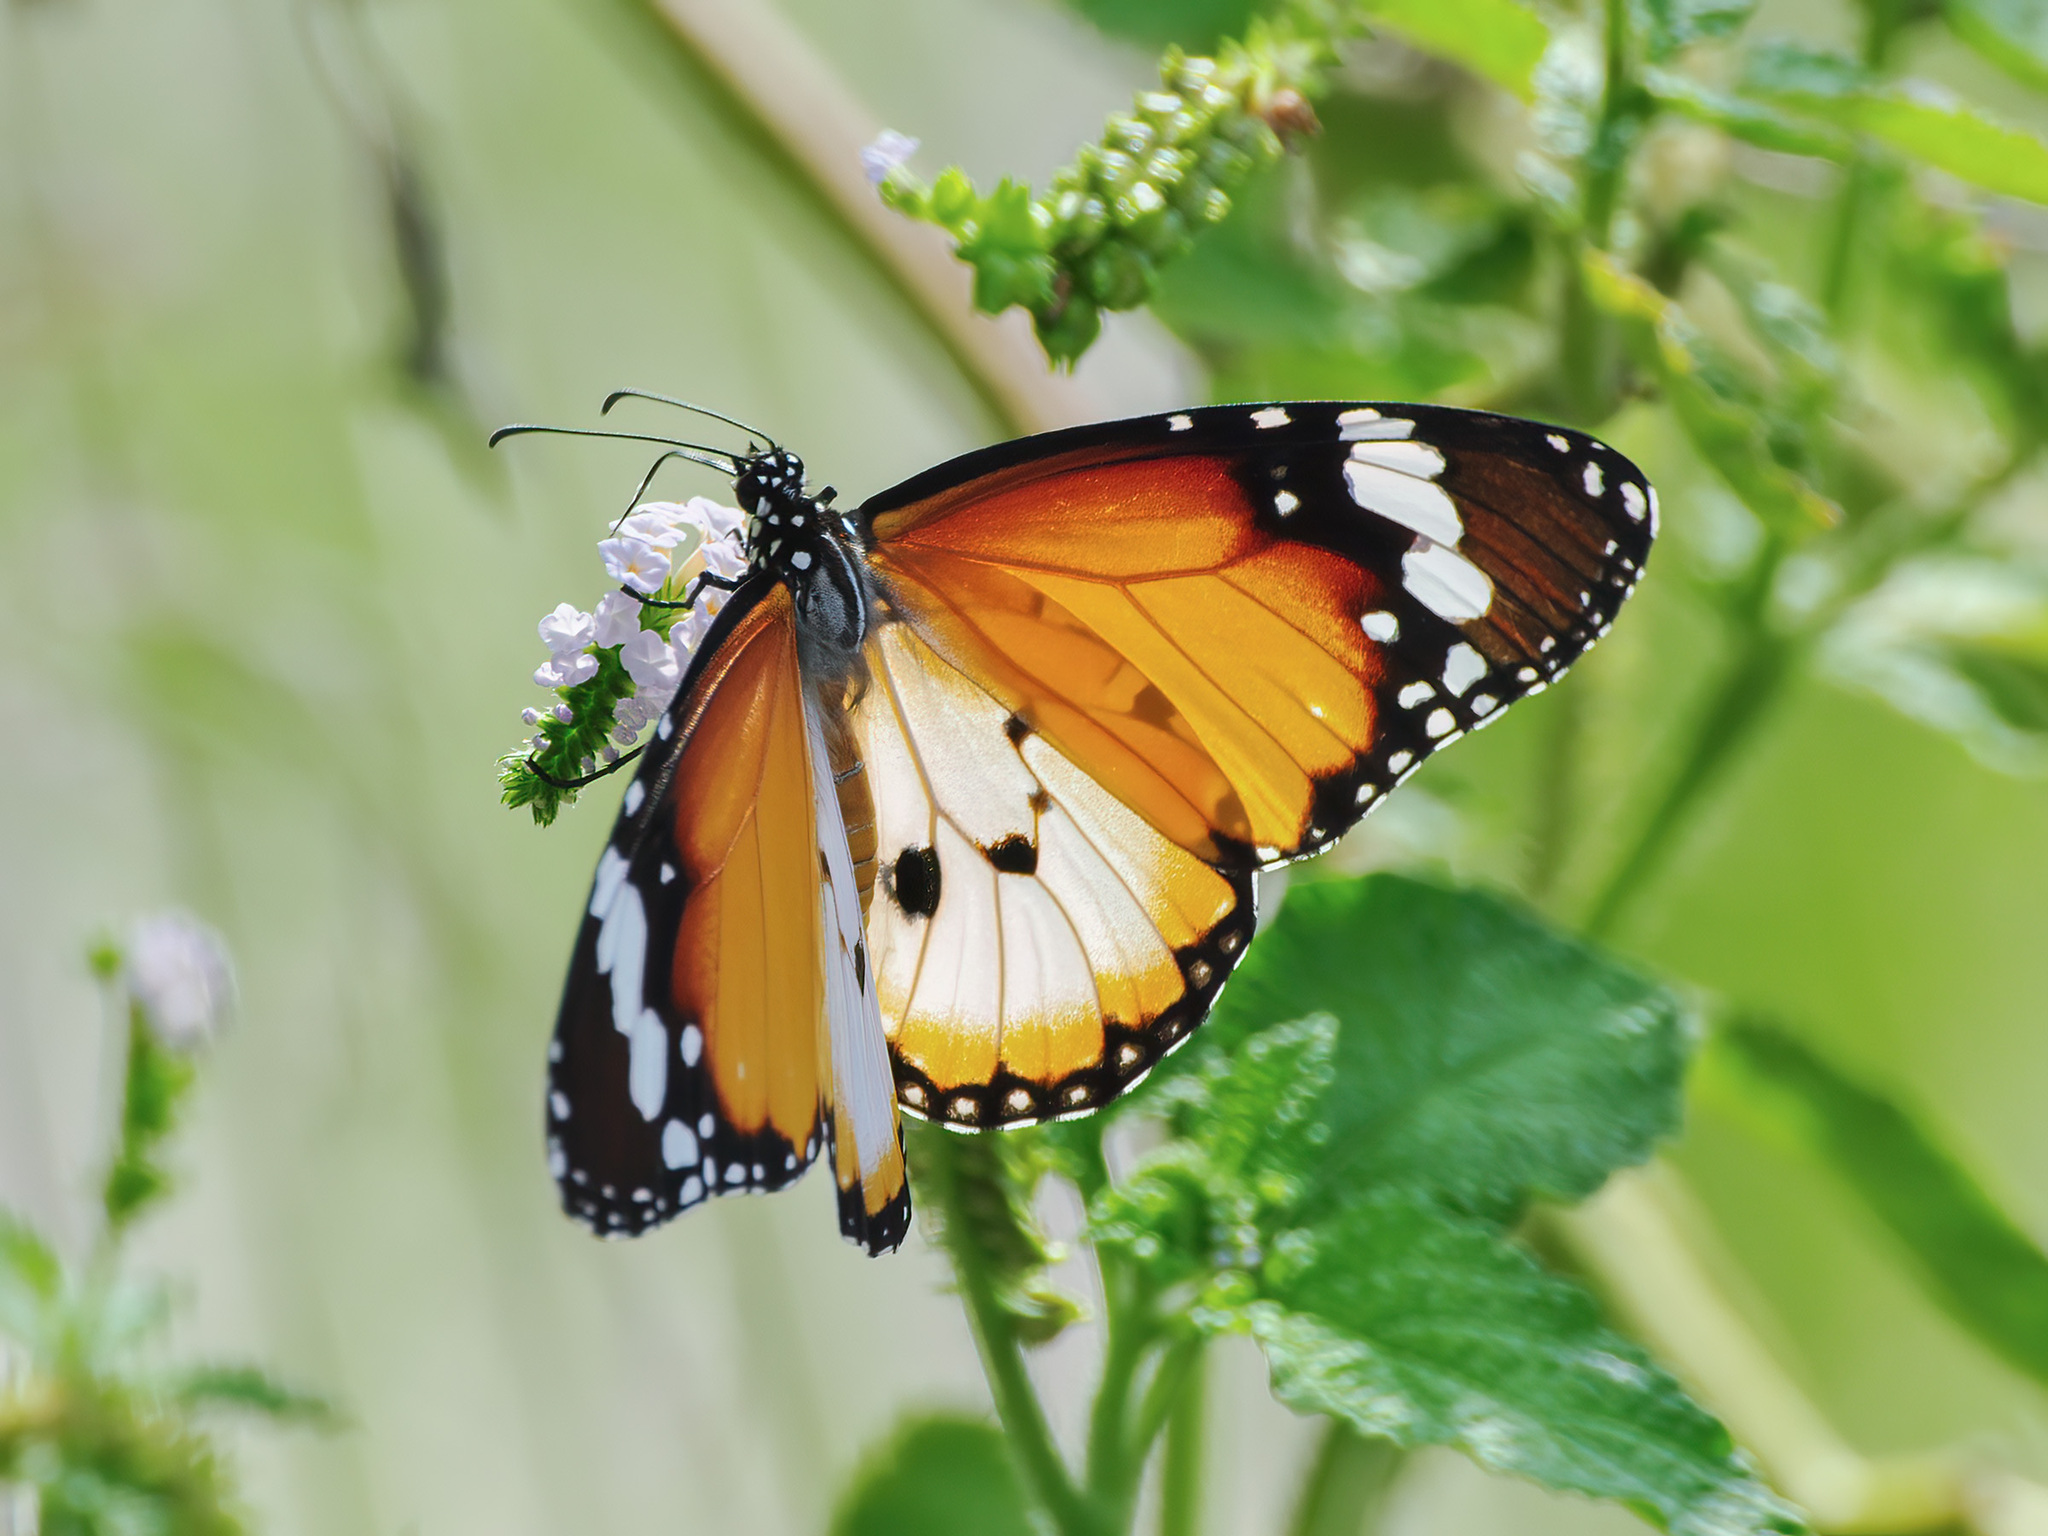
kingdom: Animalia
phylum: Arthropoda
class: Insecta
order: Lepidoptera
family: Nymphalidae
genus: Danaus
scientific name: Danaus chrysippus
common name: Plain tiger
